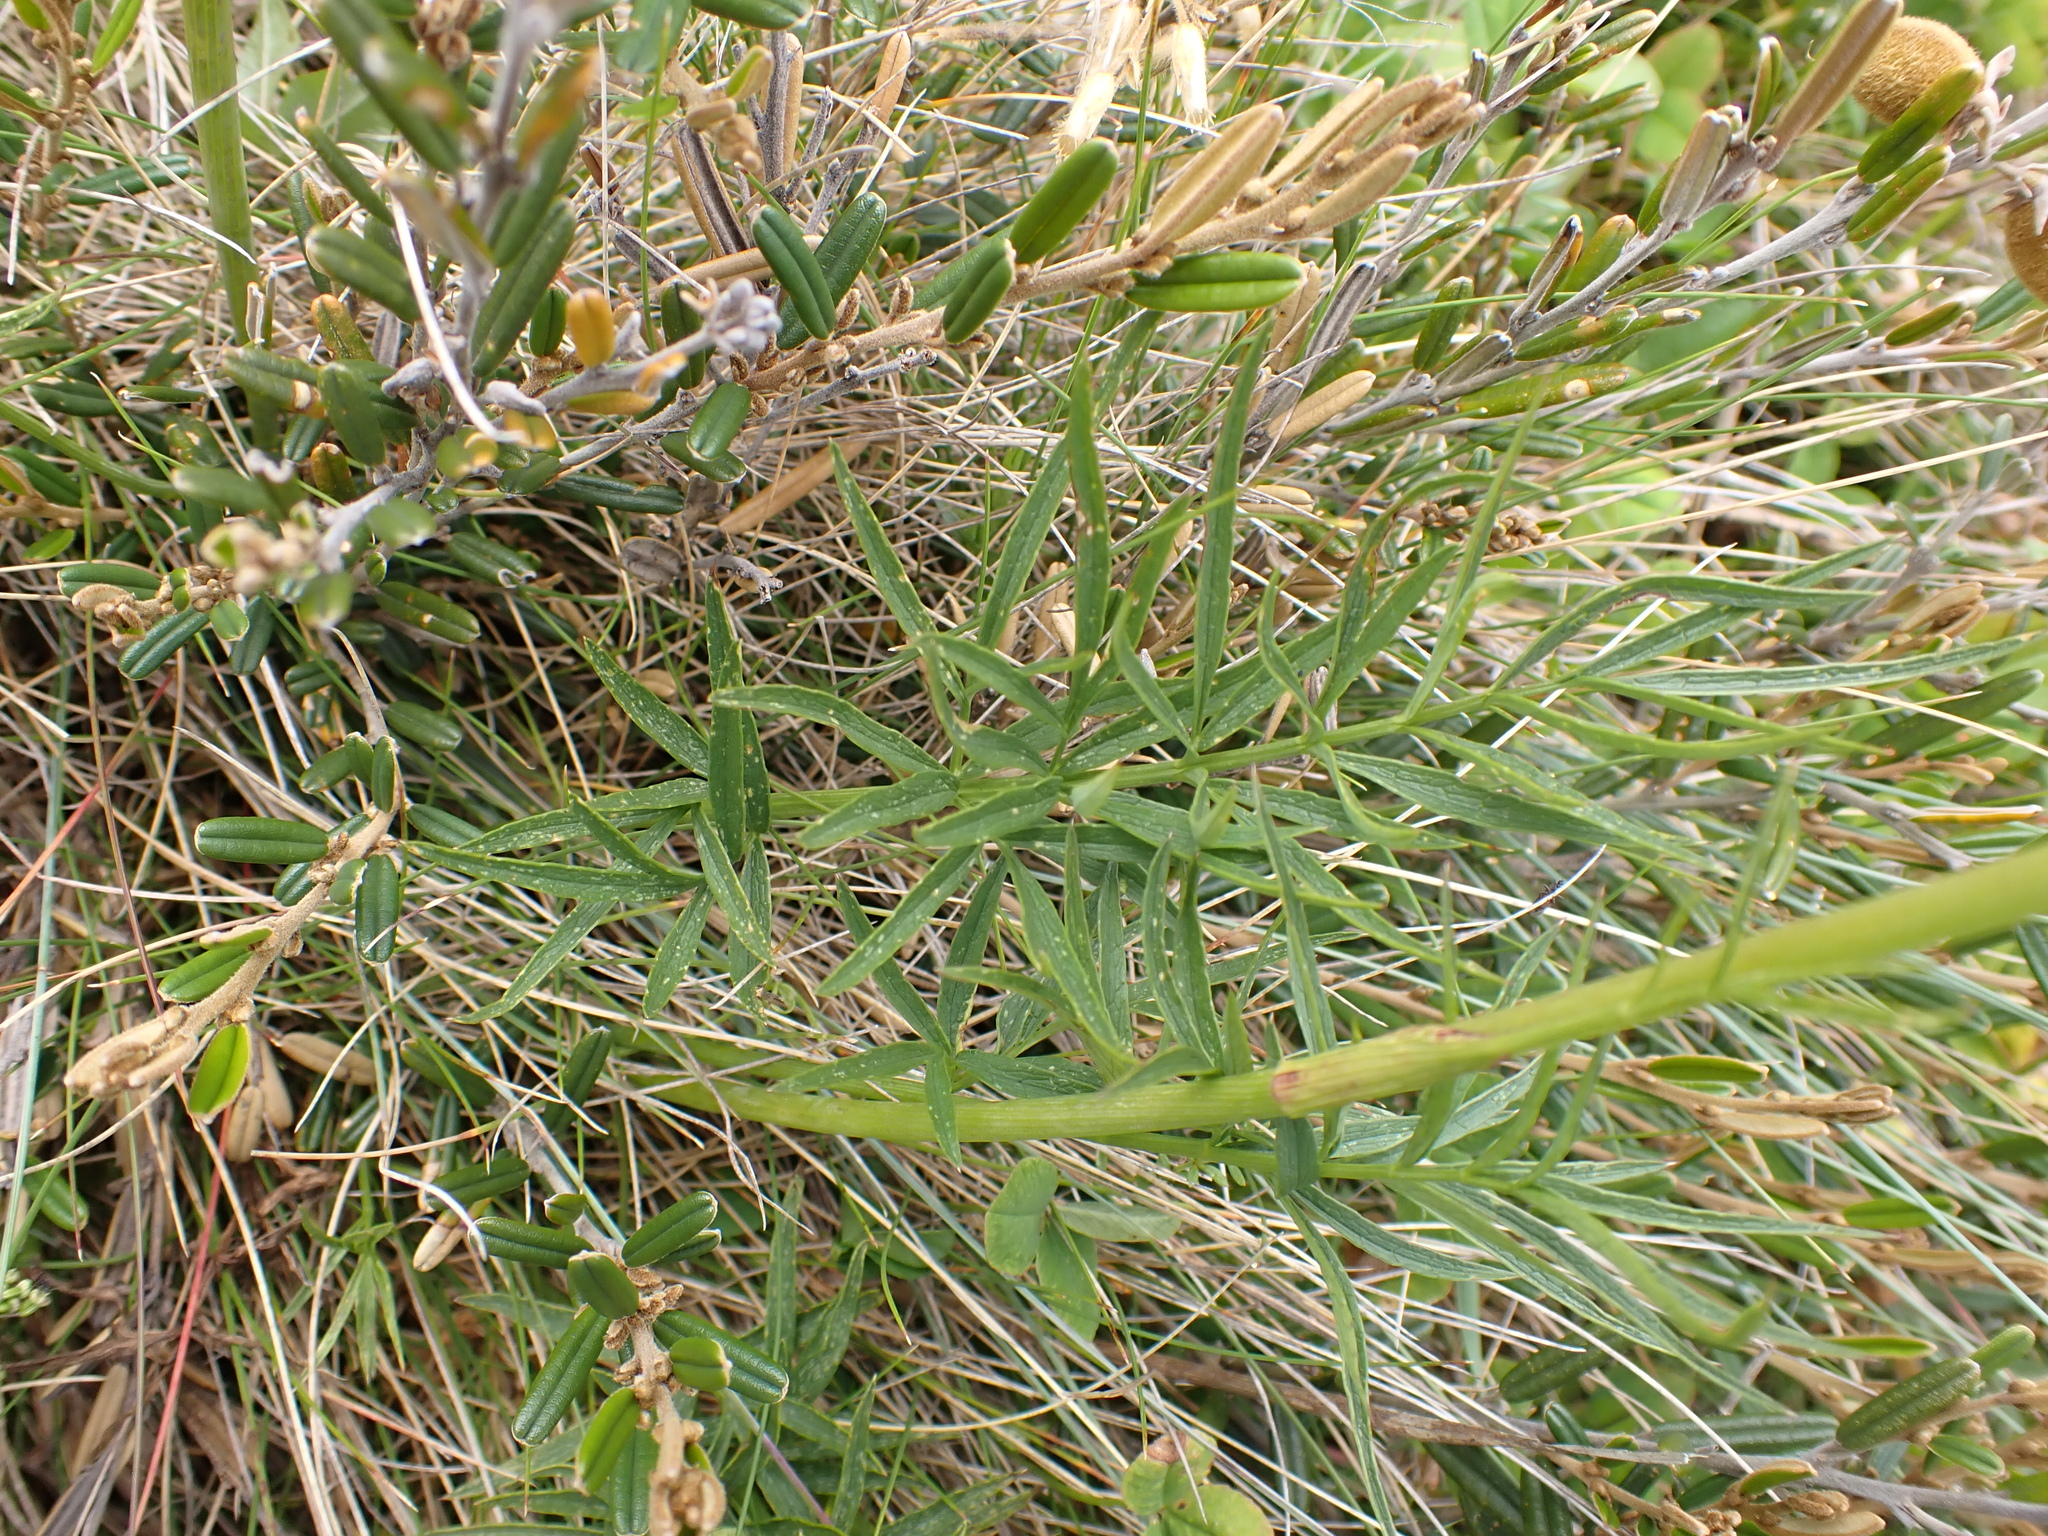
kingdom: Plantae
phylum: Tracheophyta
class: Magnoliopsida
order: Apiales
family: Apiaceae
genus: Gingidia
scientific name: Gingidia harveyana
